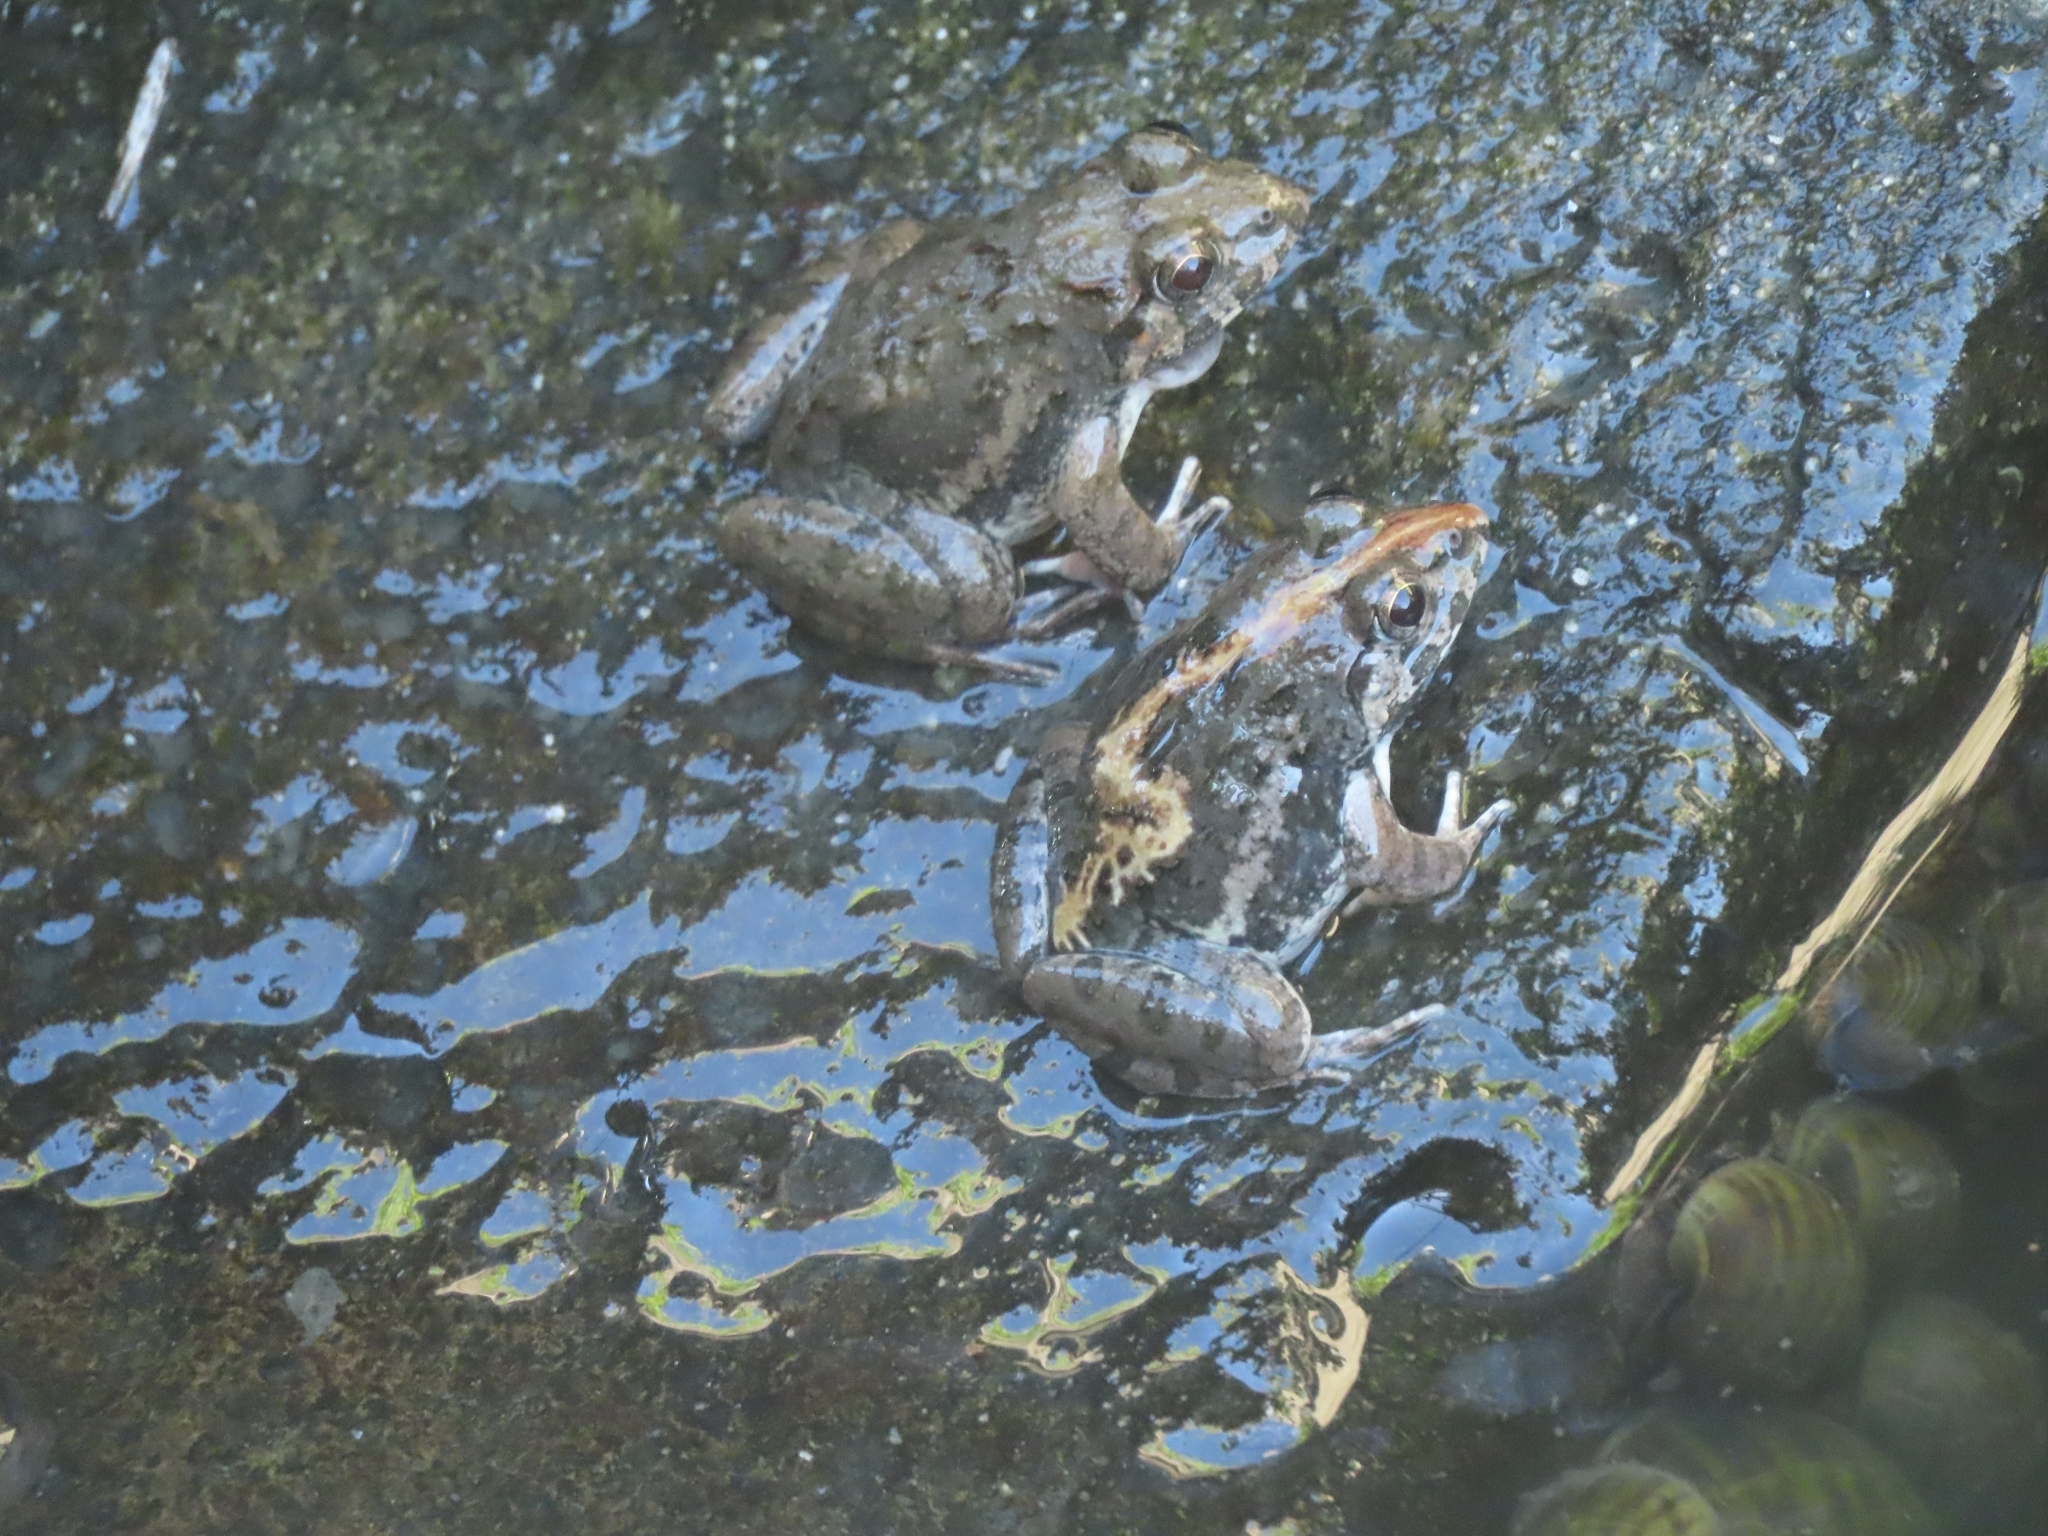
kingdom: Animalia
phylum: Chordata
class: Amphibia
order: Anura
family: Dicroglossidae
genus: Fejervarya
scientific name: Fejervarya limnocharis
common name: Asian grass frog/common pond frog/field frog/grass frog/indian rice frog
